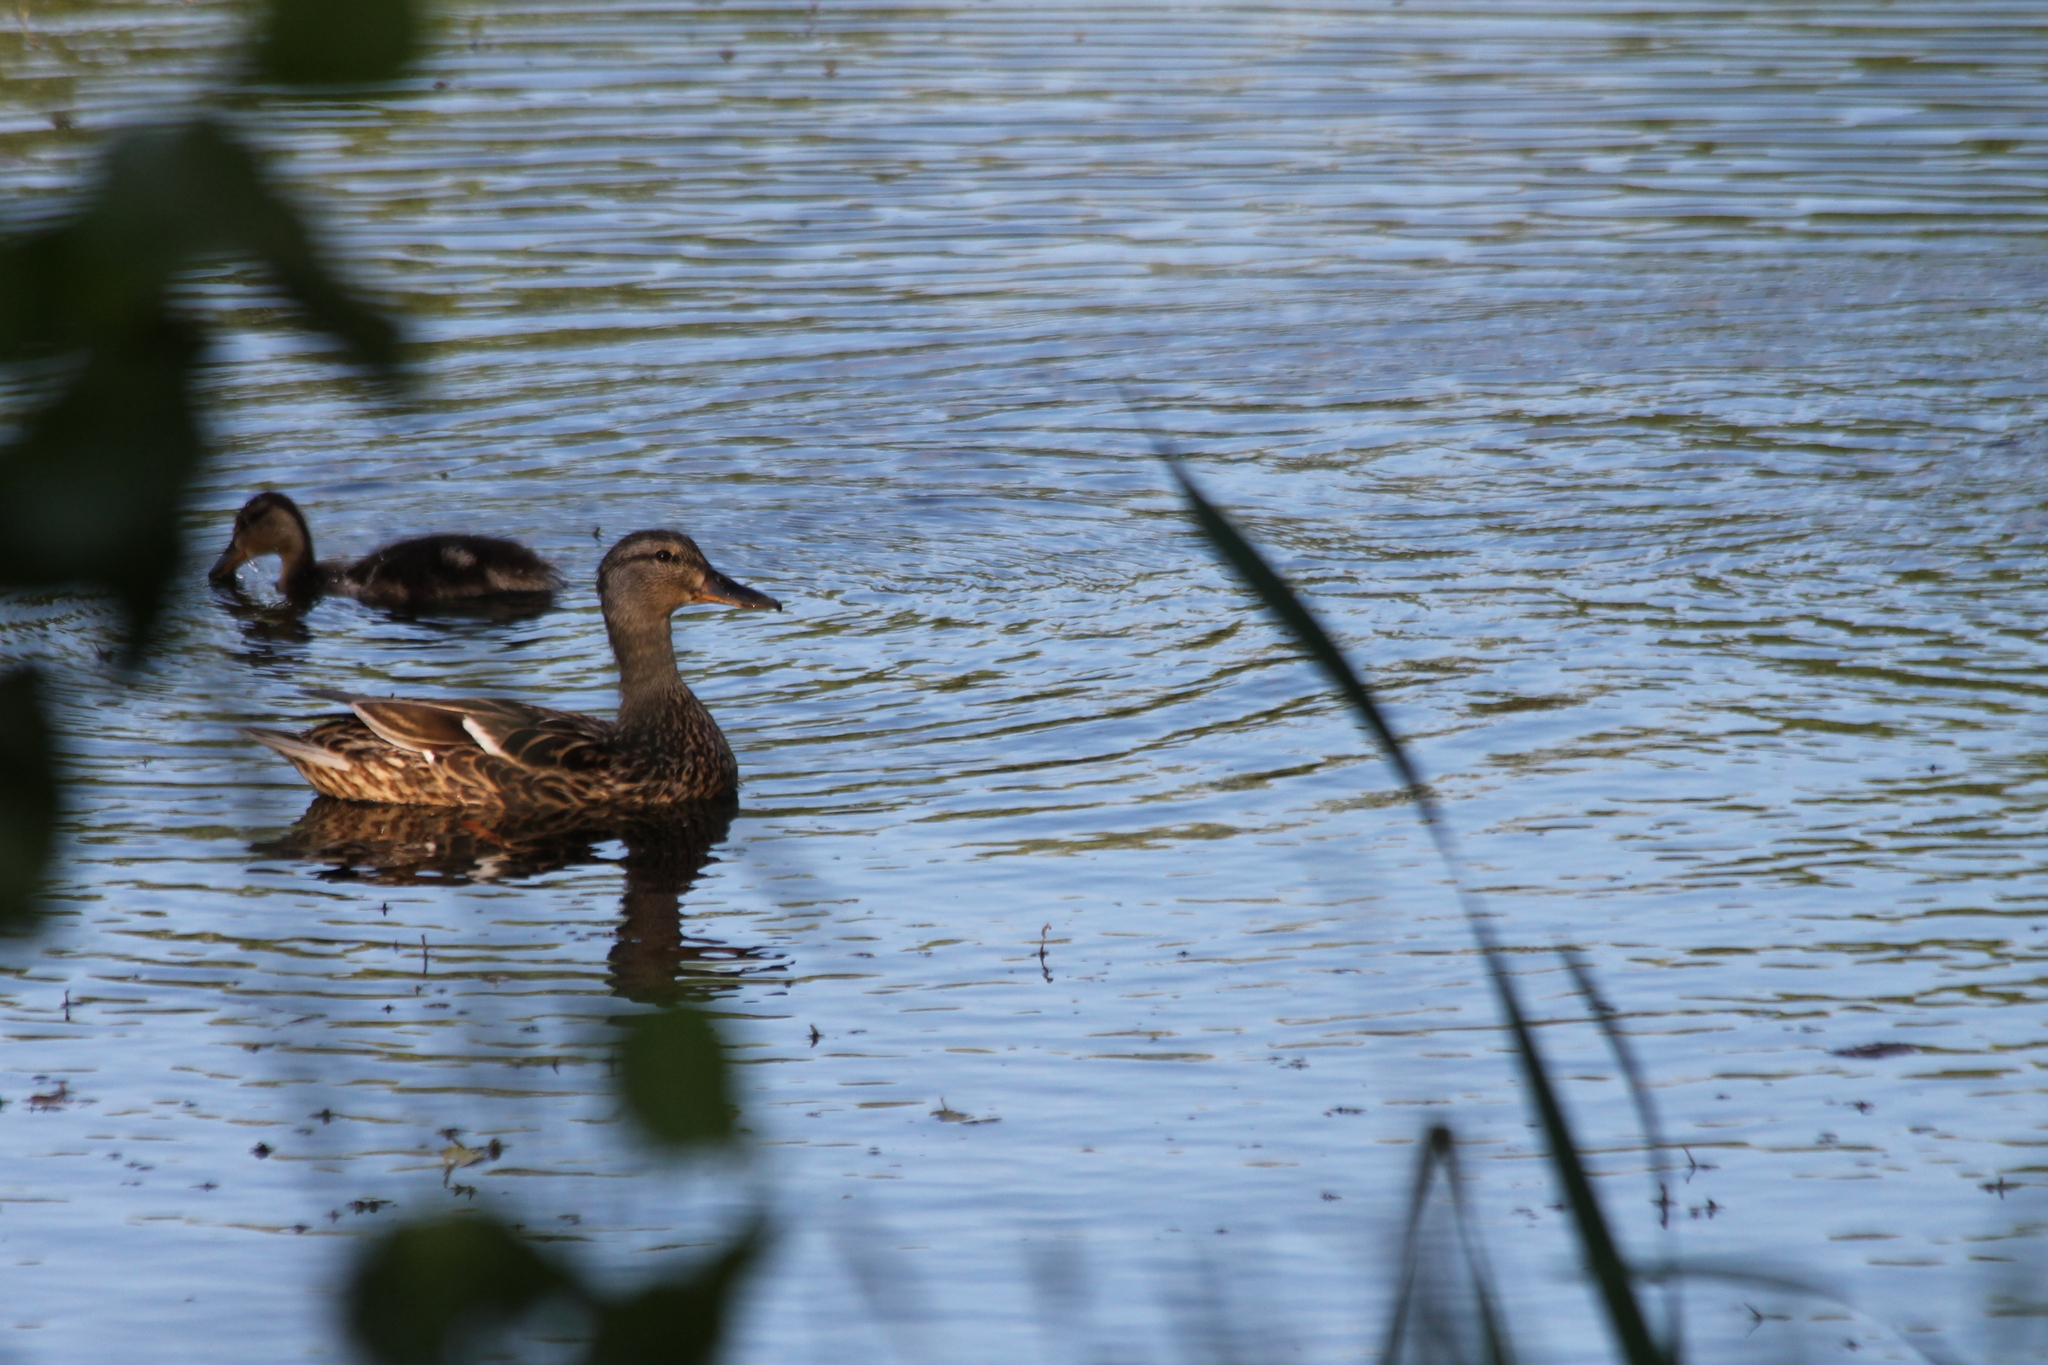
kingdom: Animalia
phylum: Chordata
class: Aves
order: Anseriformes
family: Anatidae
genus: Anas
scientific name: Anas platyrhynchos
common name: Mallard
